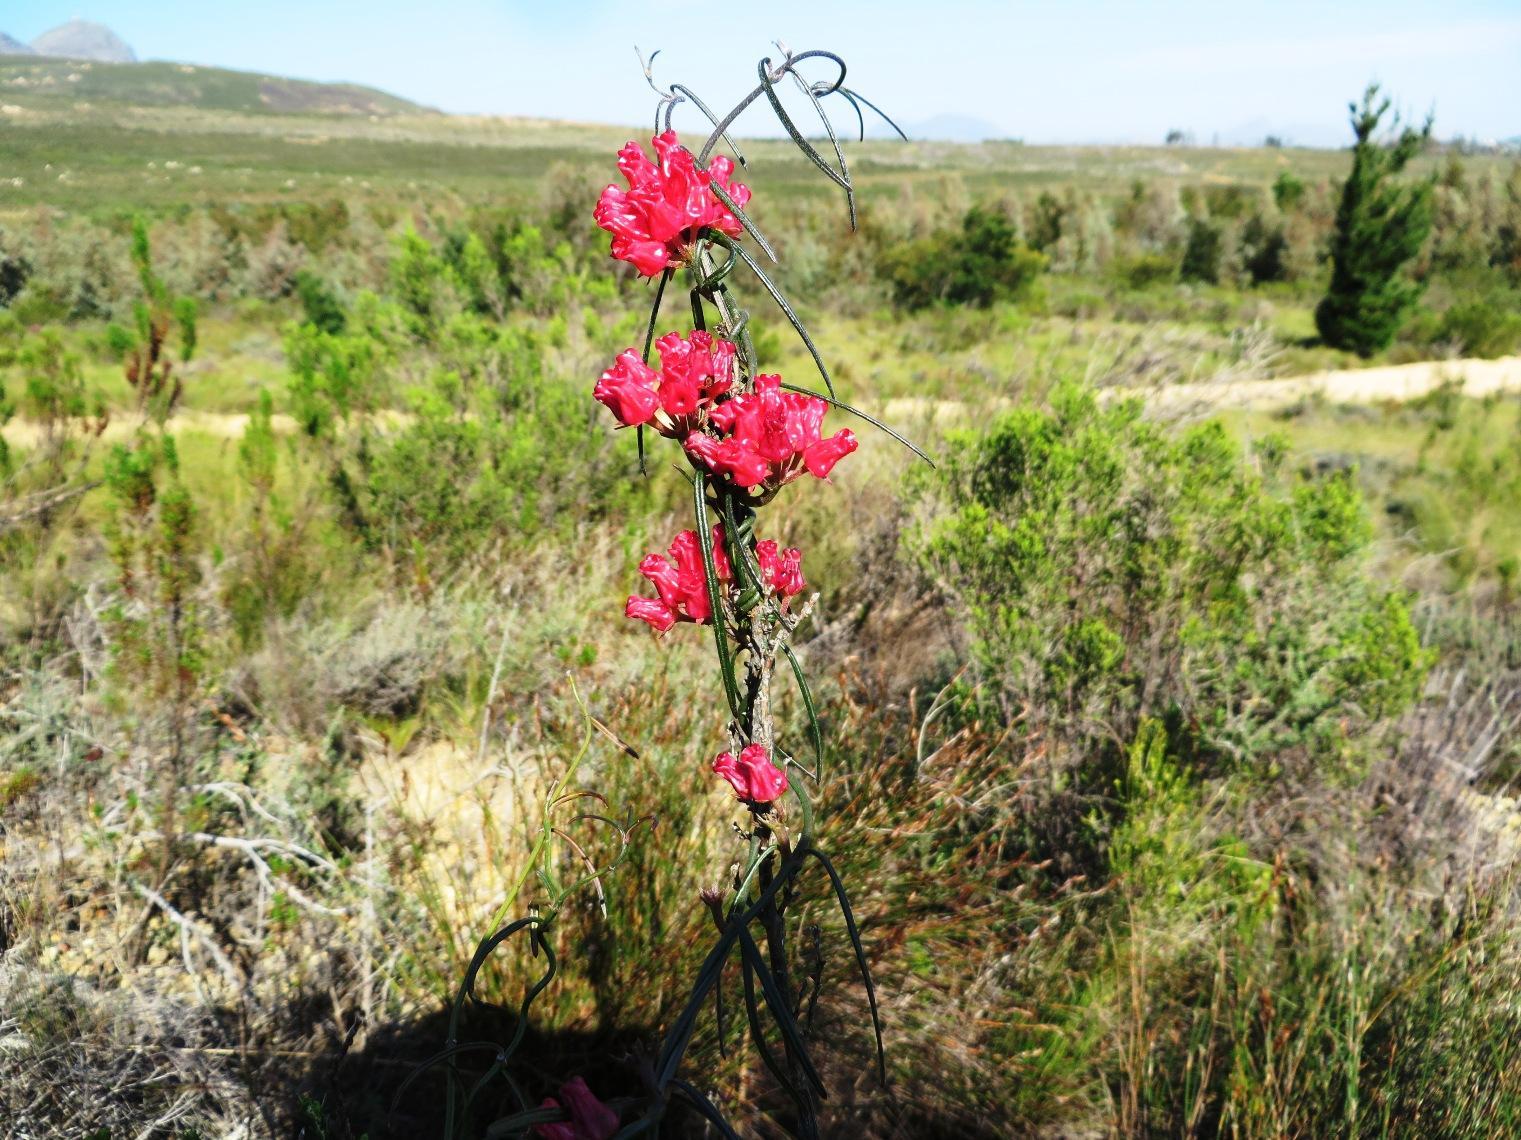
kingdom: Plantae
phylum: Tracheophyta
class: Magnoliopsida
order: Gentianales
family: Apocynaceae
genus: Microloma
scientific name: Microloma tenuifolium
